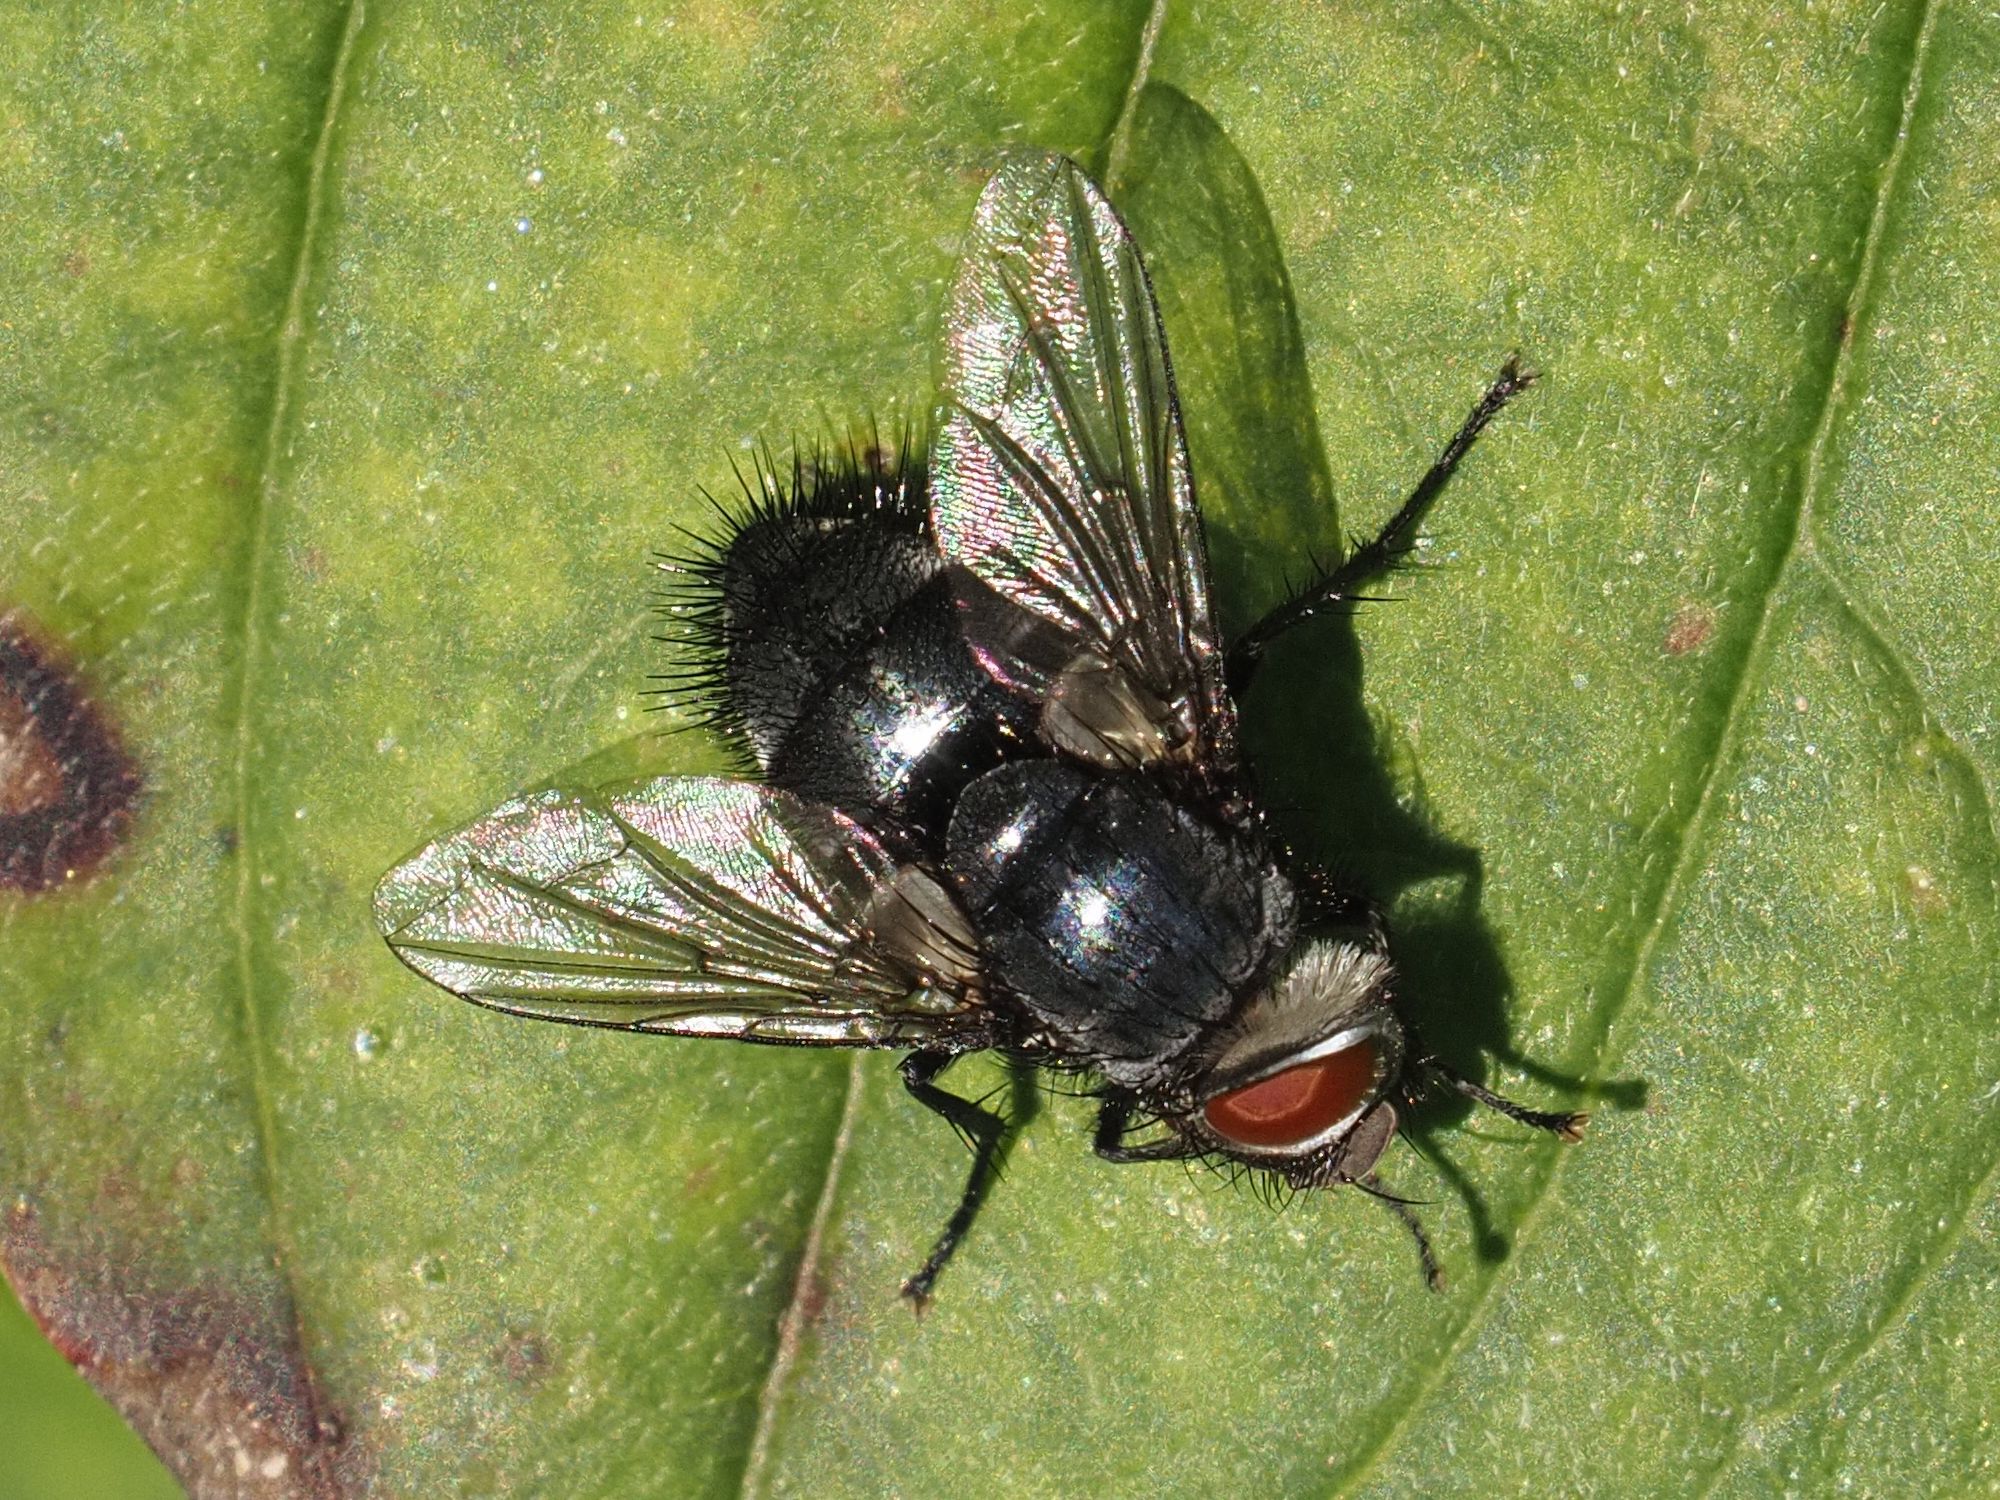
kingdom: Animalia
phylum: Arthropoda
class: Insecta
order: Diptera
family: Tachinidae
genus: Epicampocera
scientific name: Epicampocera succincta
